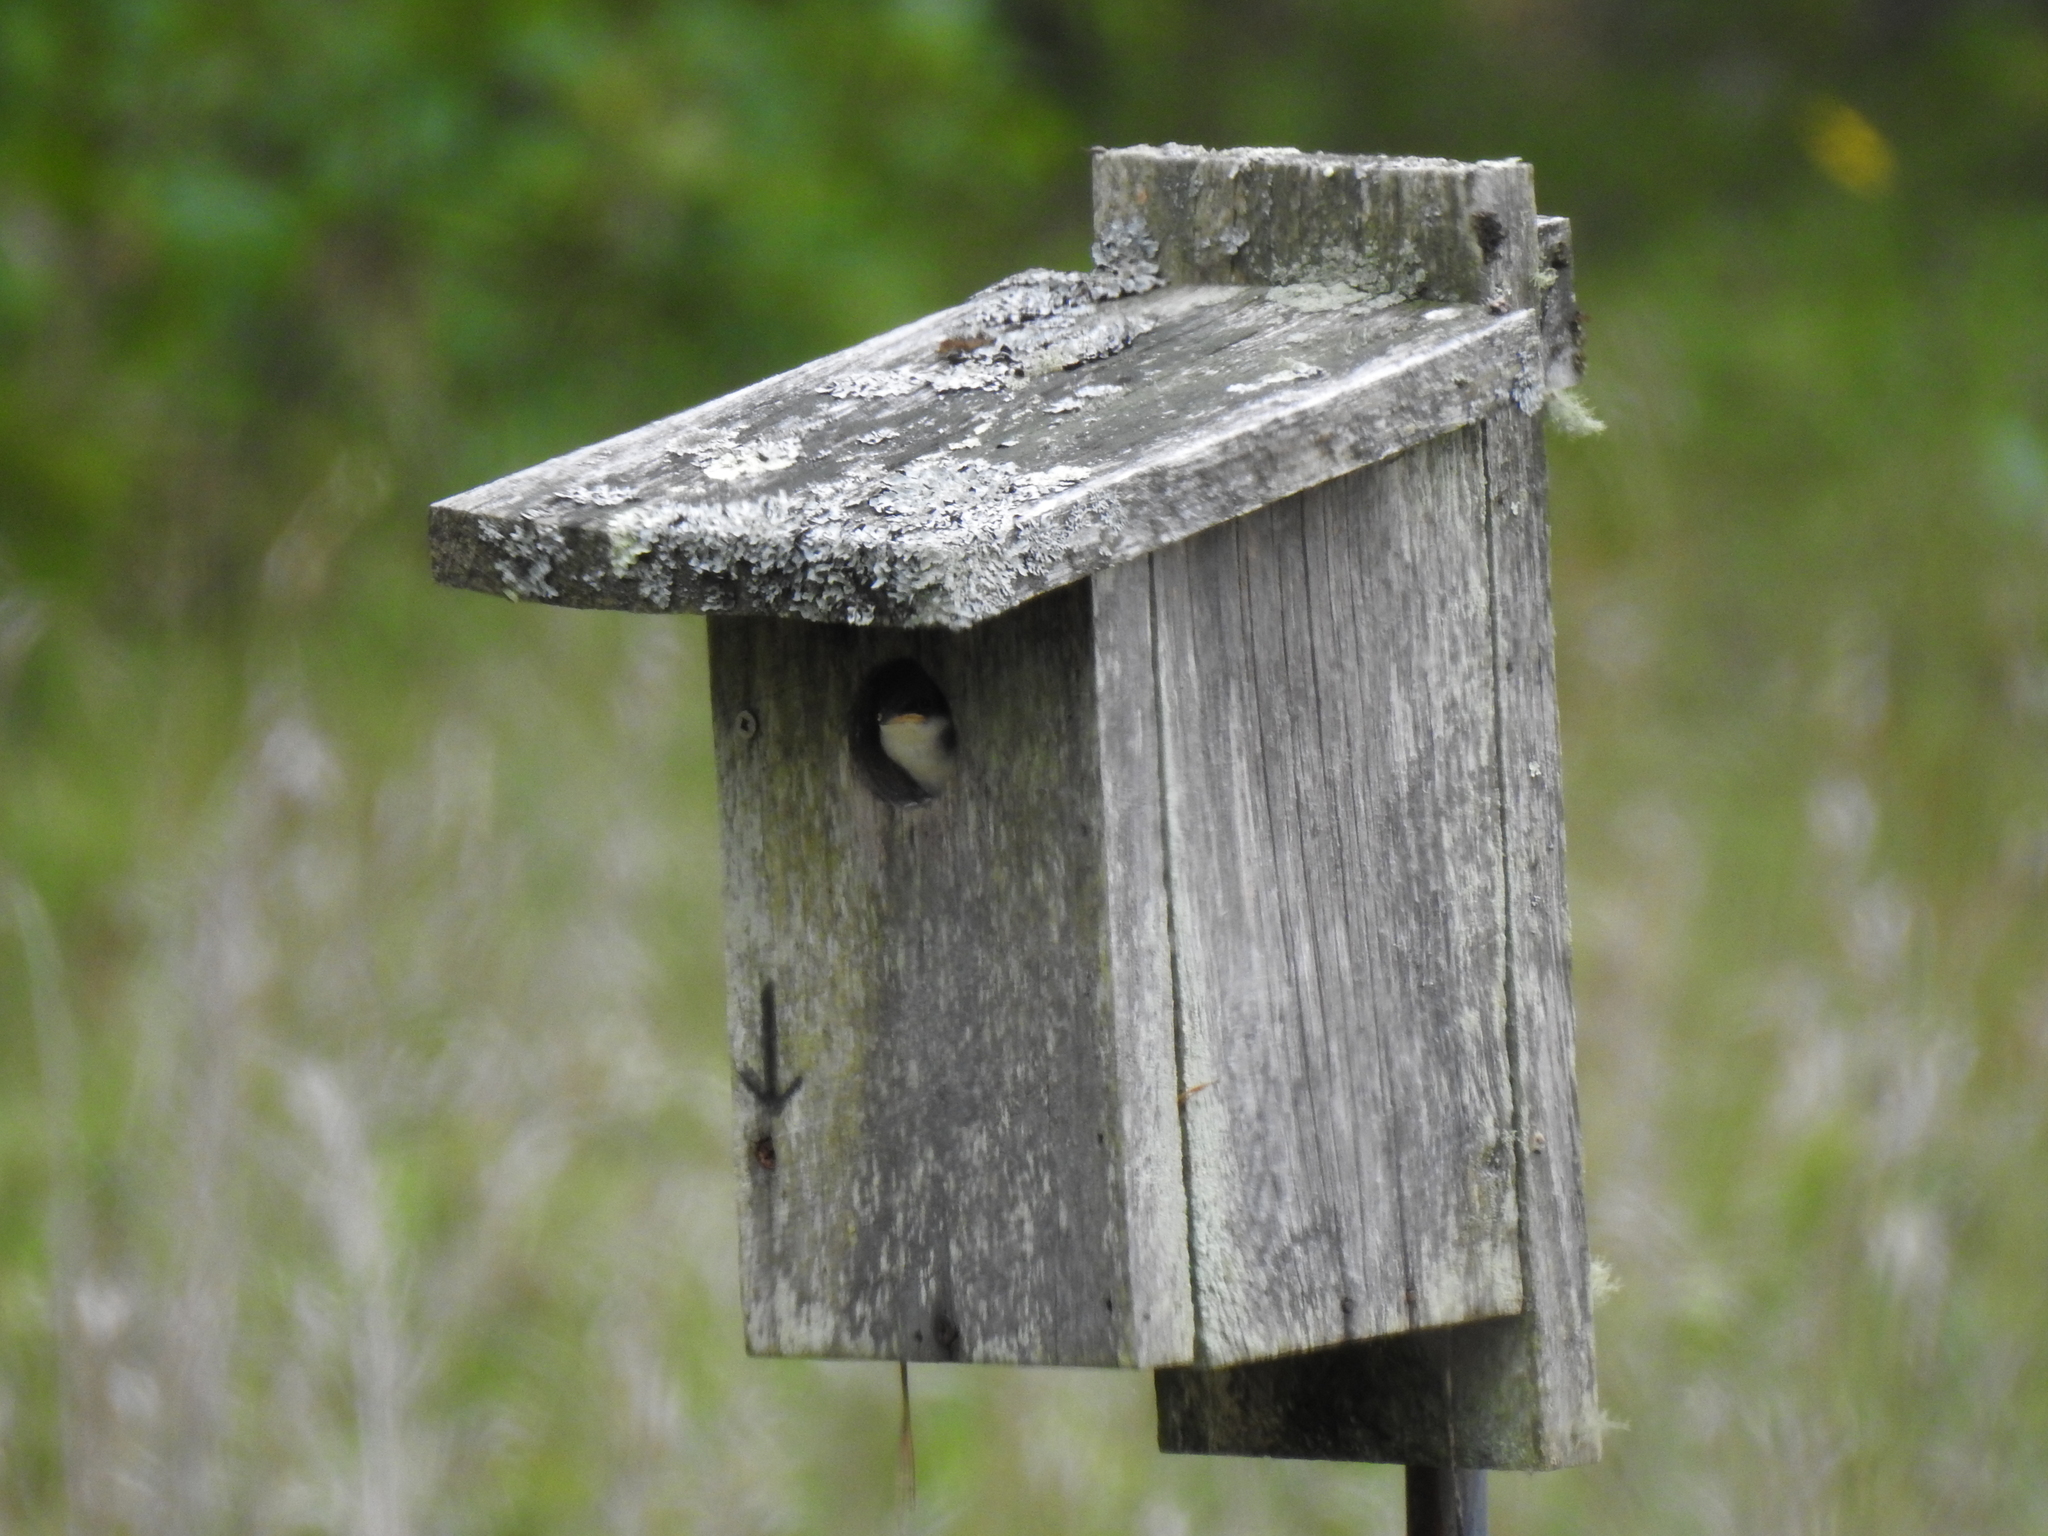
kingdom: Animalia
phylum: Chordata
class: Aves
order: Passeriformes
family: Hirundinidae
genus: Tachycineta
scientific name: Tachycineta bicolor
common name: Tree swallow
